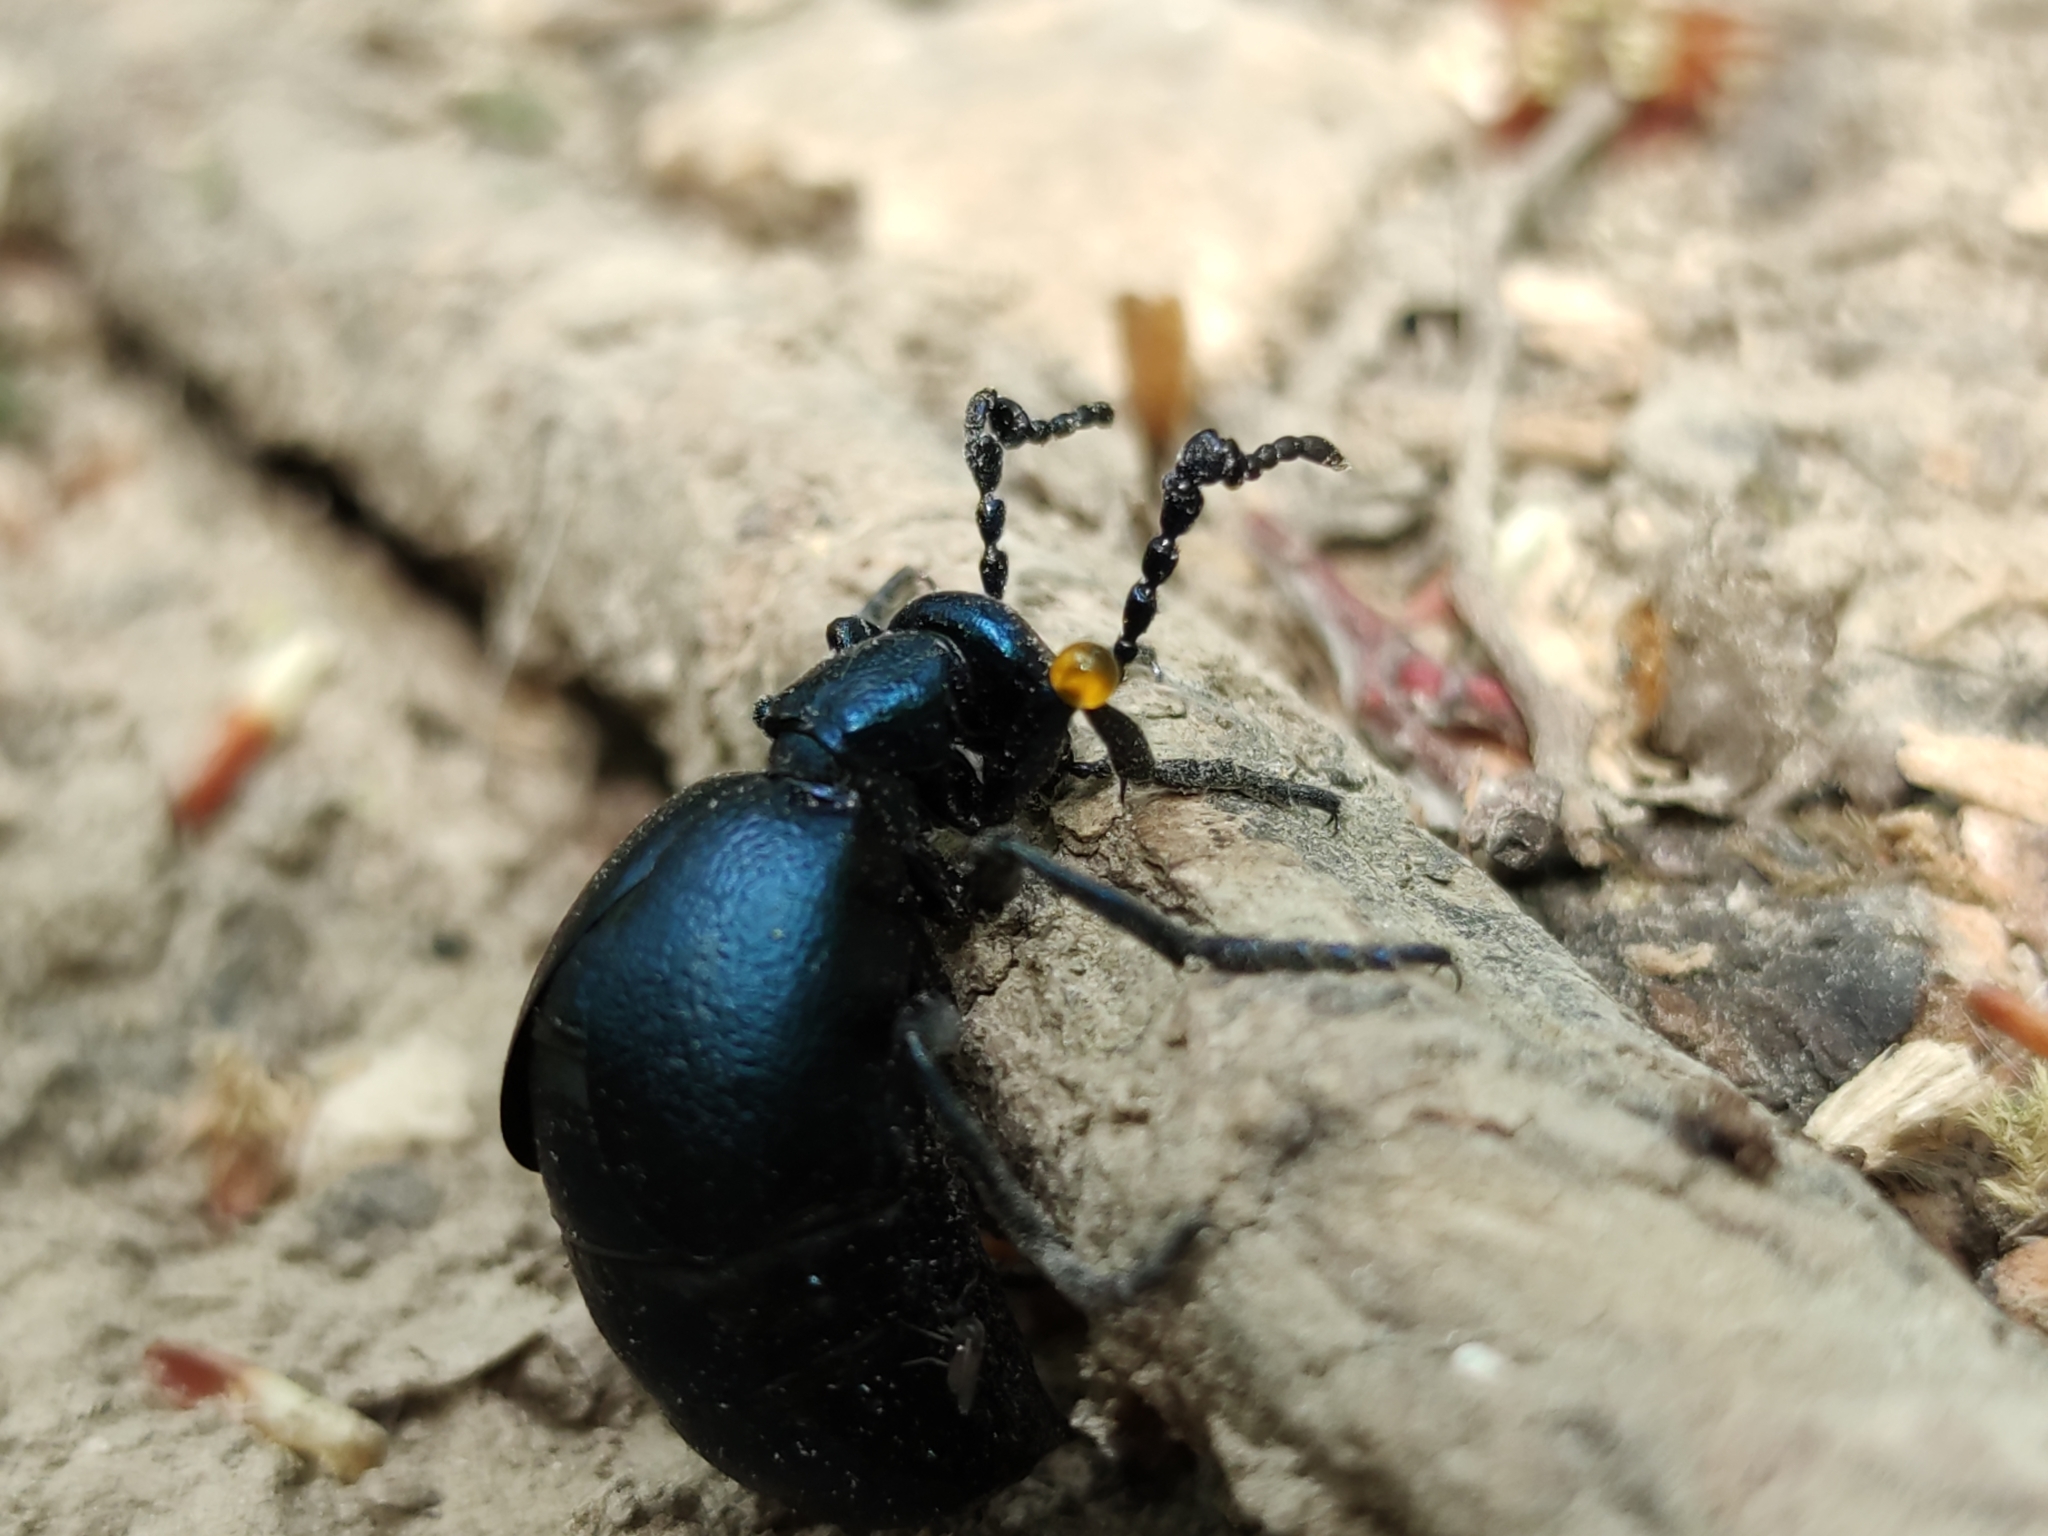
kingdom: Animalia
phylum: Arthropoda
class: Insecta
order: Coleoptera
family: Meloidae
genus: Meloe
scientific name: Meloe violaceus
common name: Violet oil-beetle
